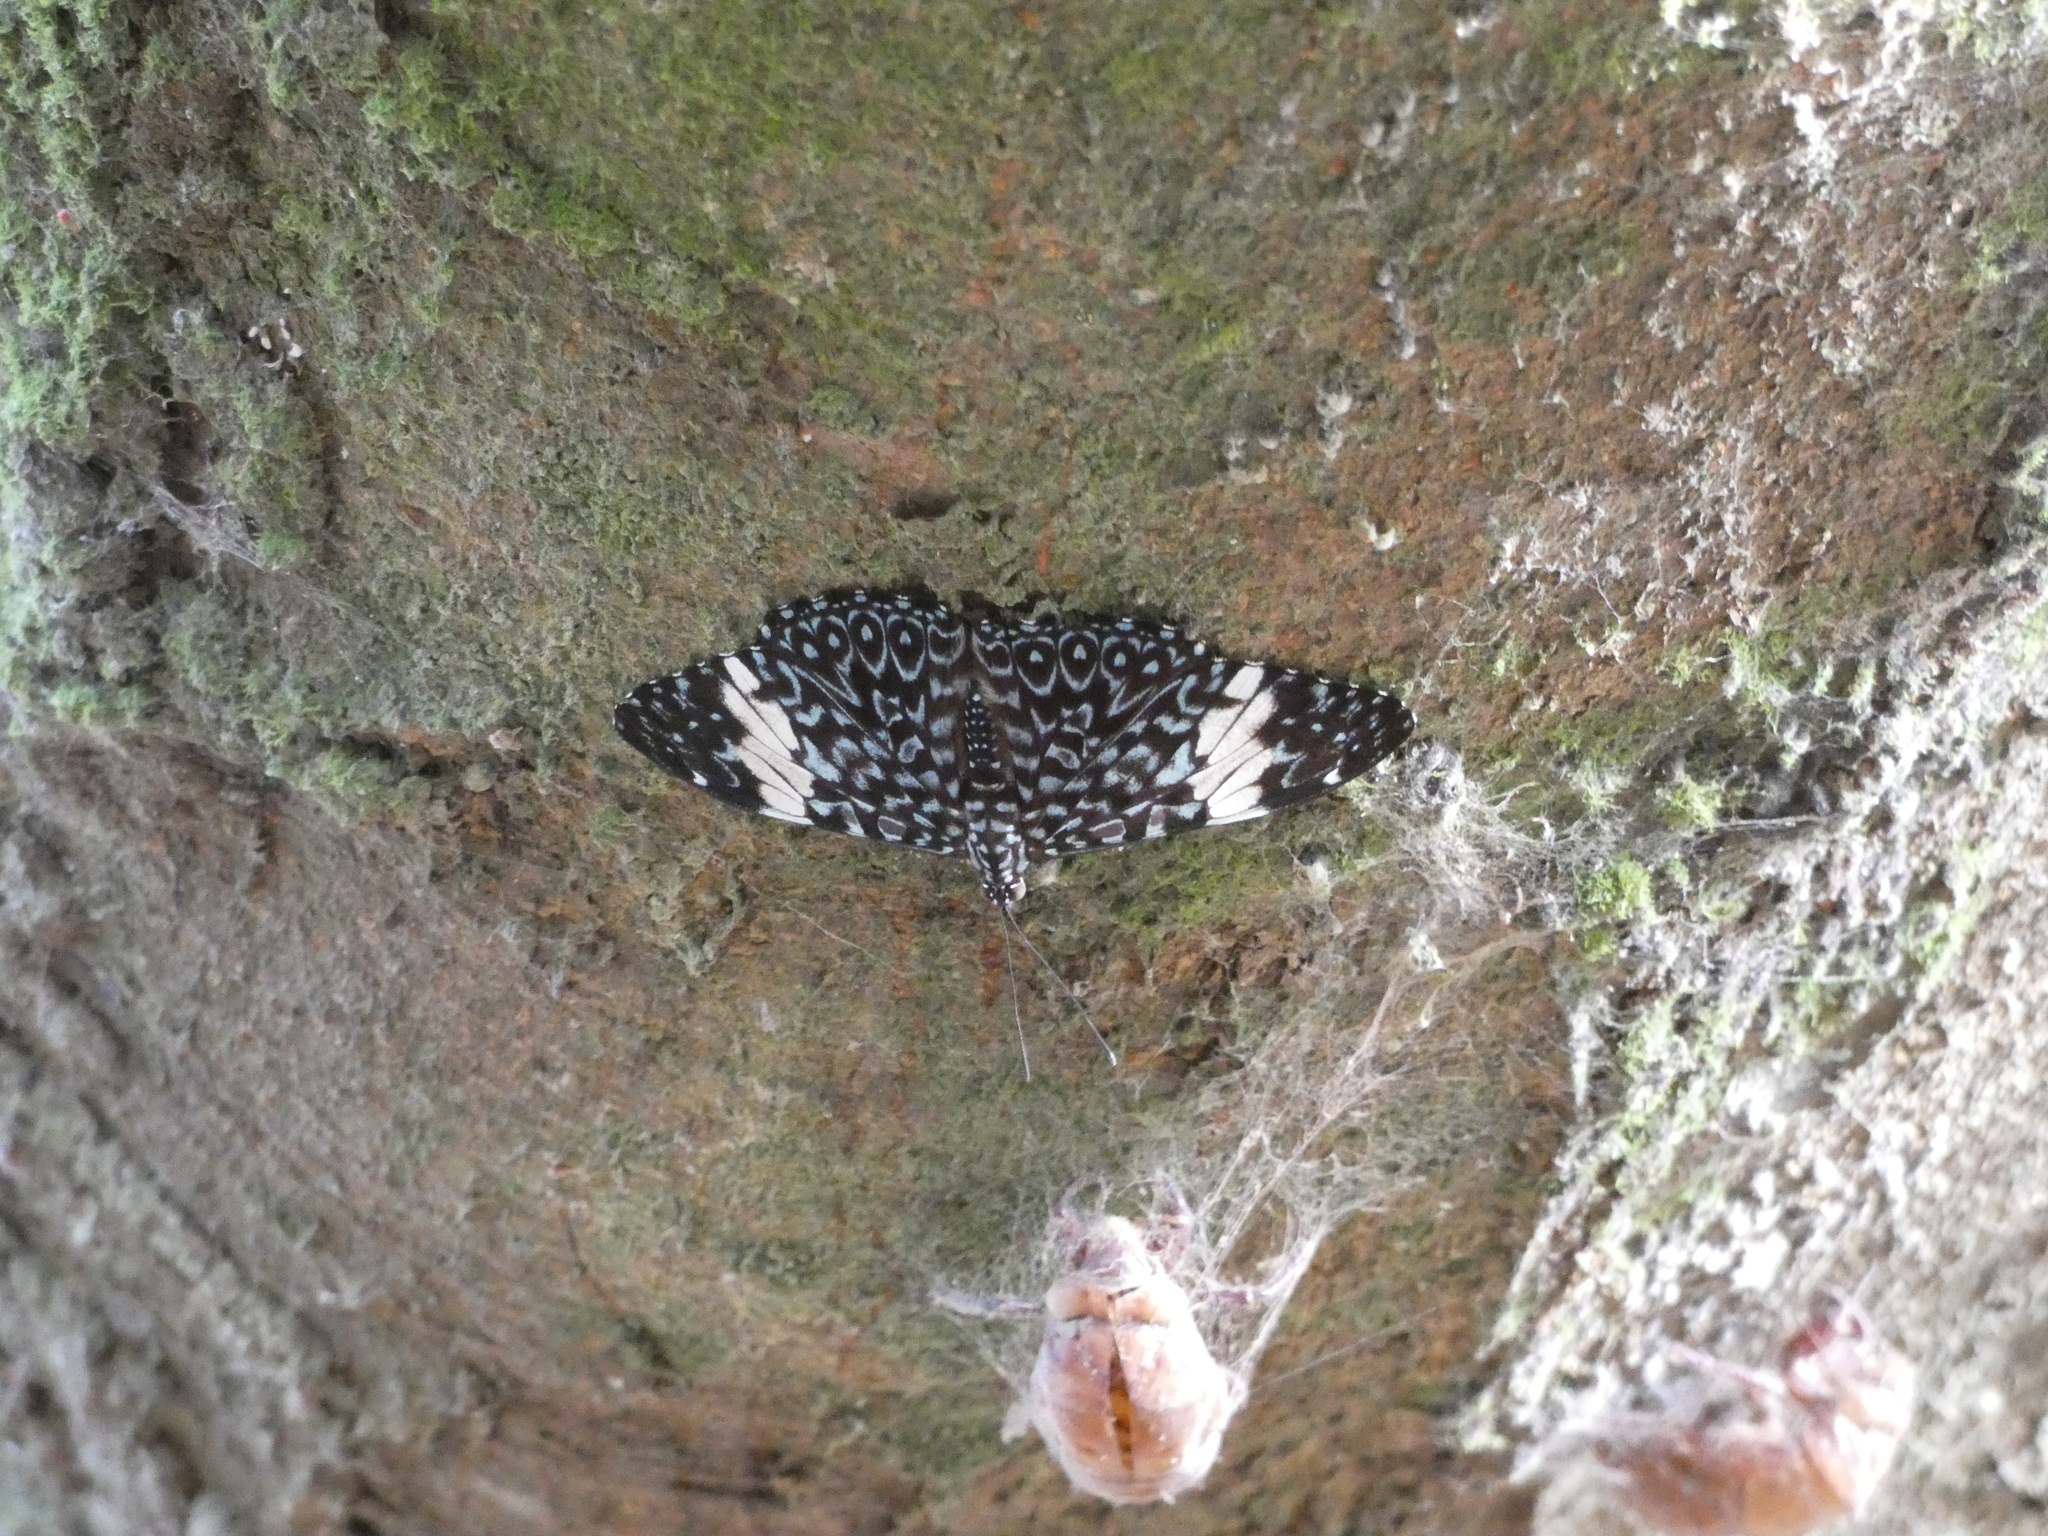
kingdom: Animalia
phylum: Arthropoda
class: Insecta
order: Lepidoptera
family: Nymphalidae
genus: Hamadryas
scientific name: Hamadryas amphinome
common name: Red cracker
